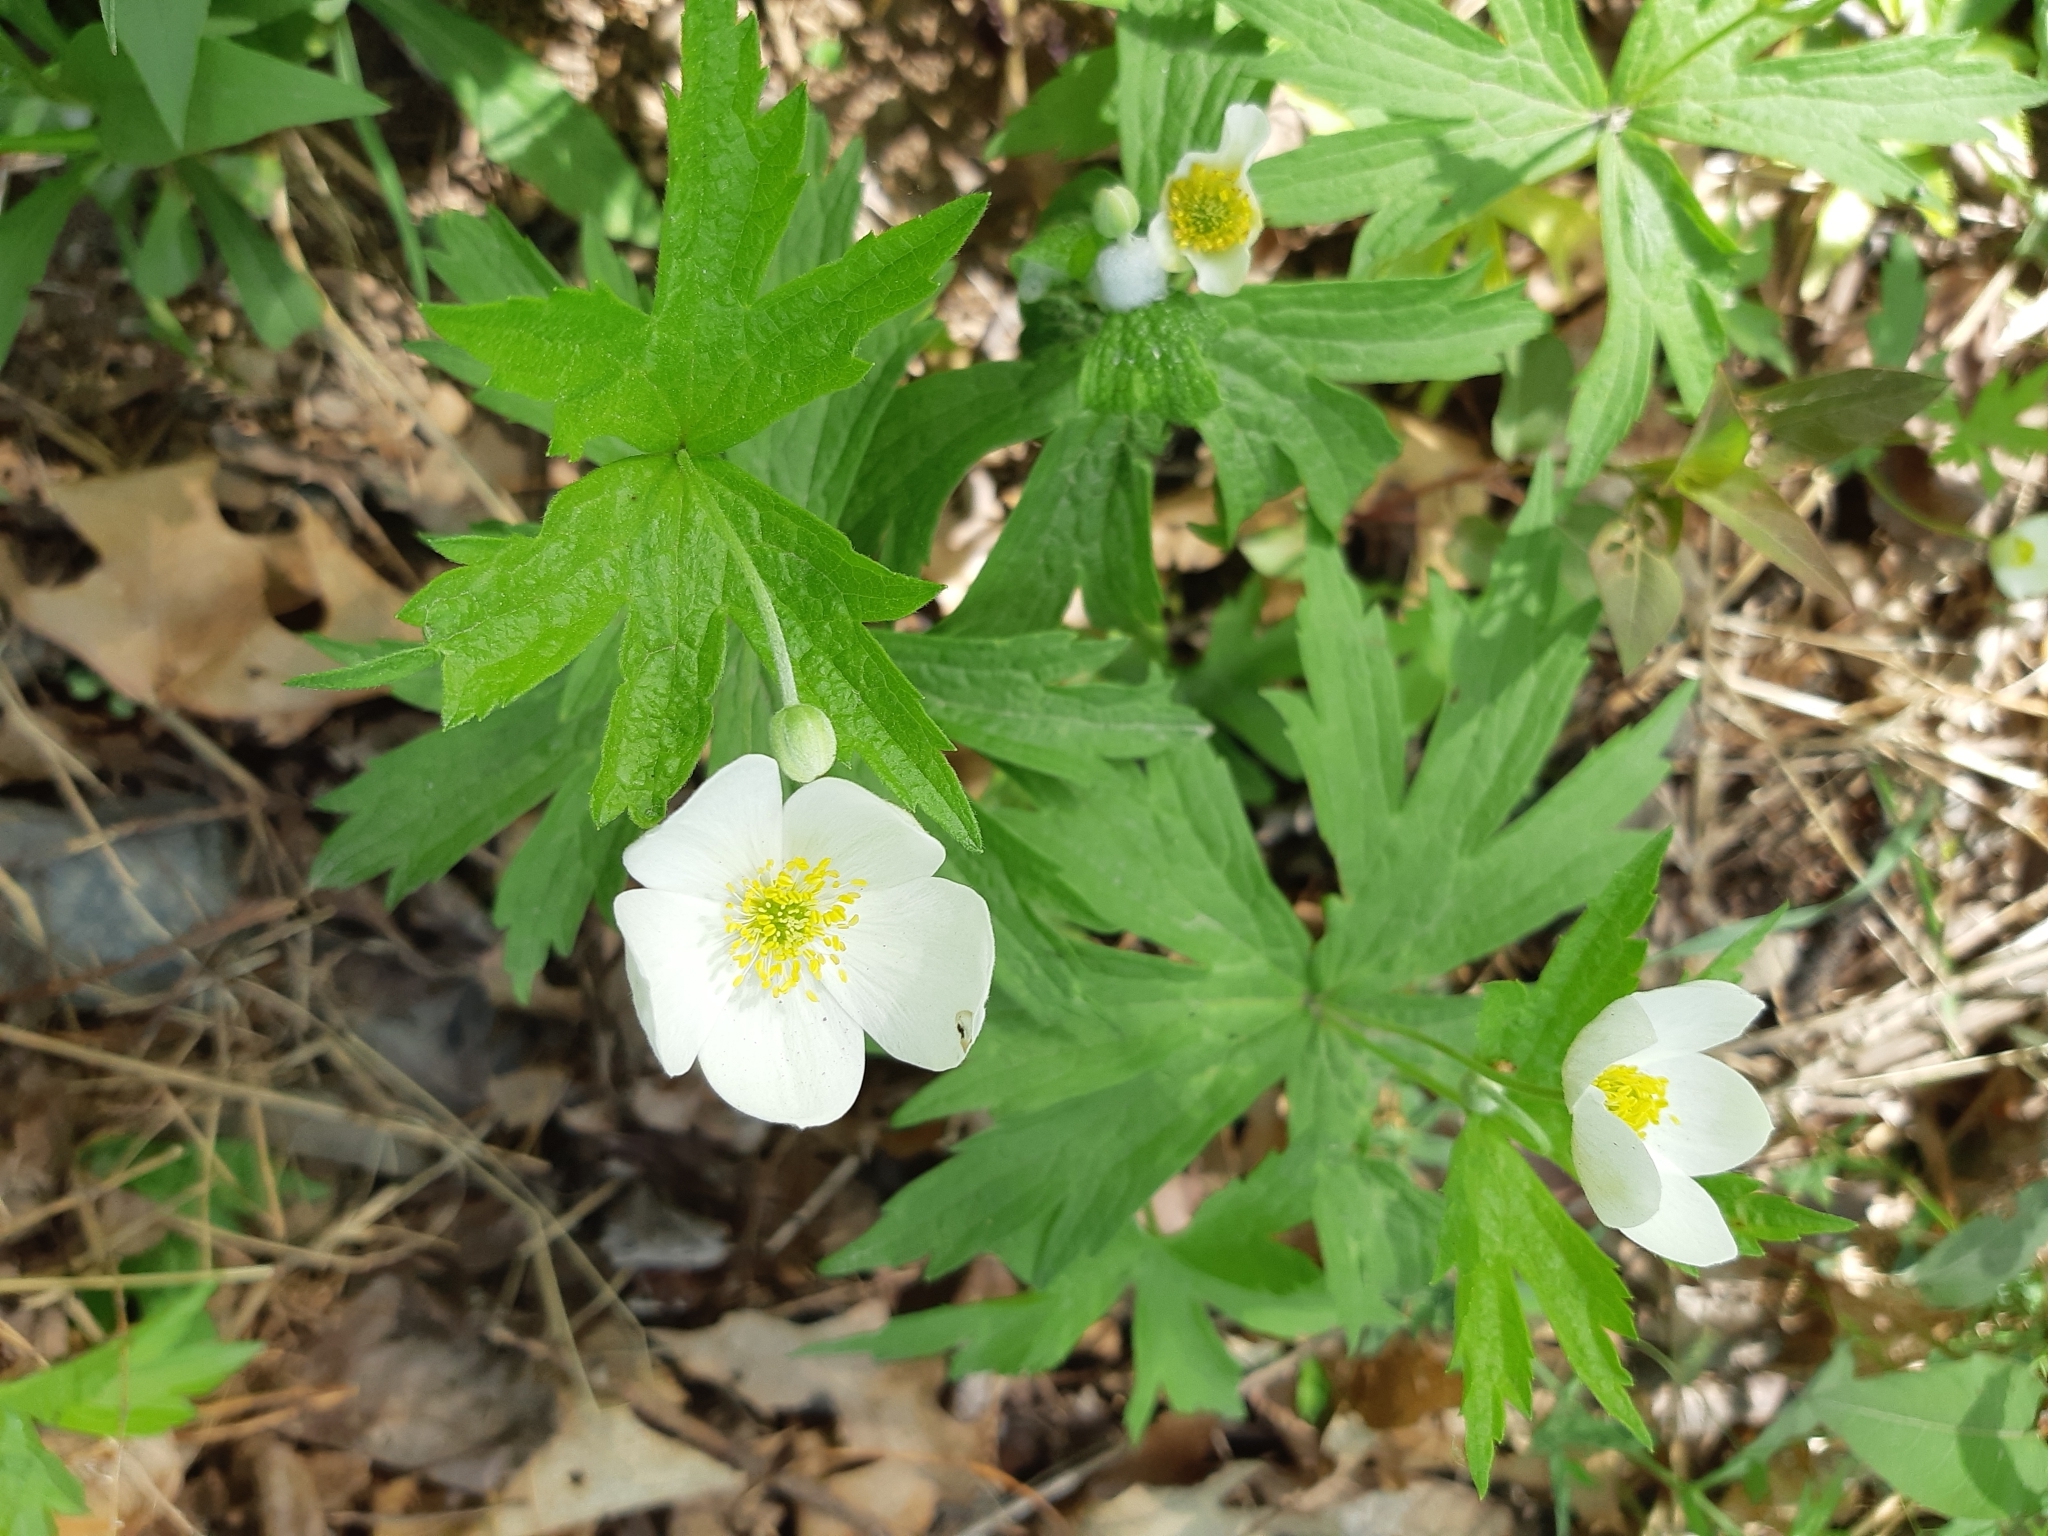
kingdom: Plantae
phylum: Tracheophyta
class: Magnoliopsida
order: Ranunculales
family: Ranunculaceae
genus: Anemonastrum
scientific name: Anemonastrum canadense
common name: Canada anemone
